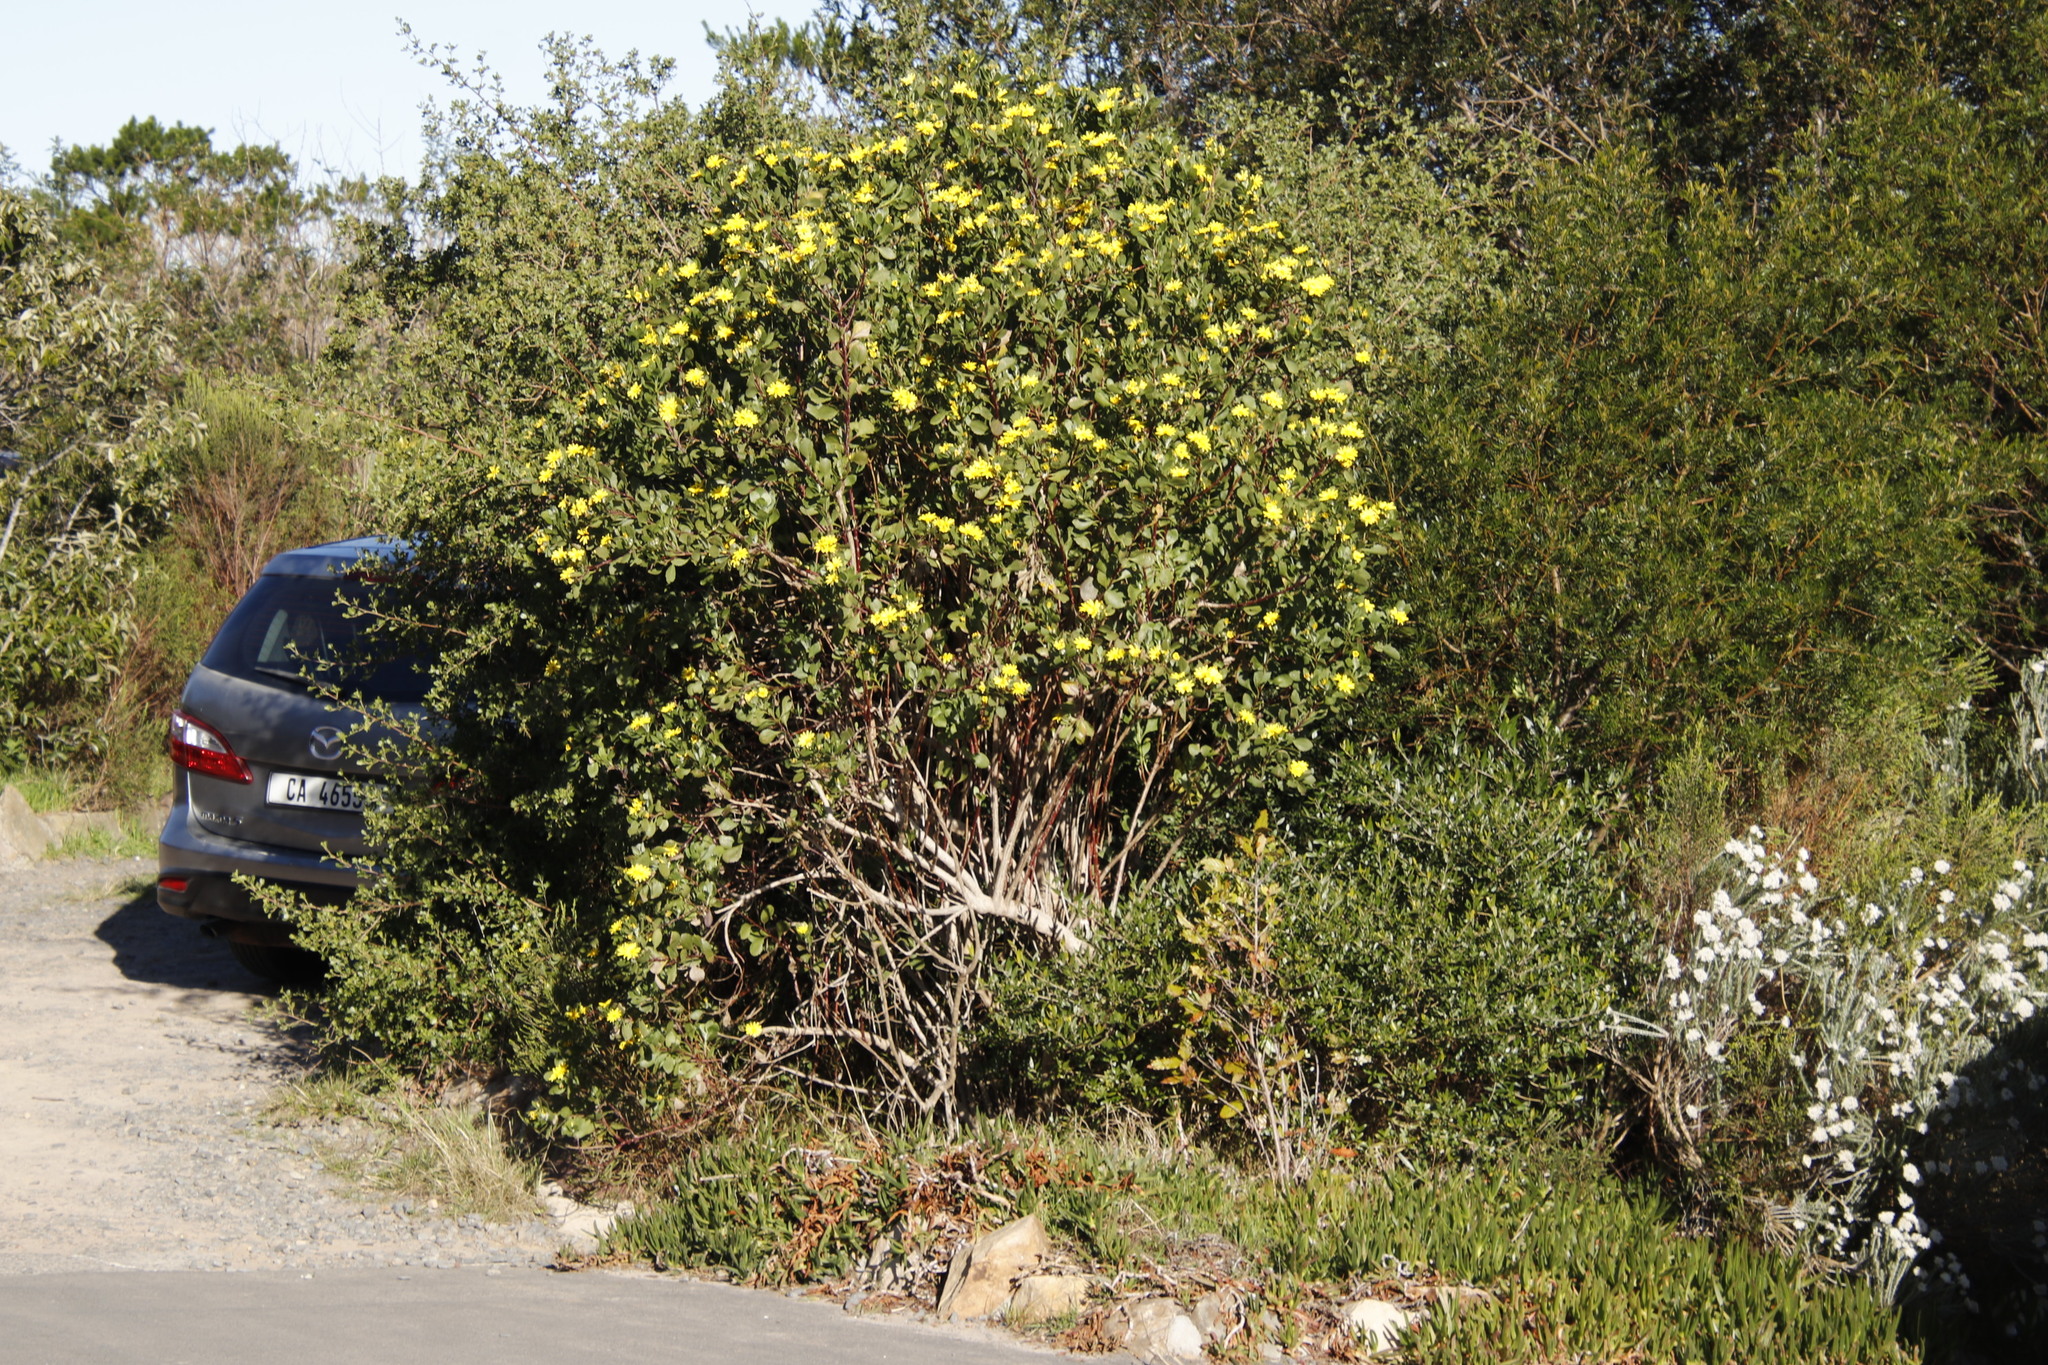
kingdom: Plantae
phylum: Tracheophyta
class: Magnoliopsida
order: Asterales
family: Asteraceae
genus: Osteospermum
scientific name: Osteospermum moniliferum
